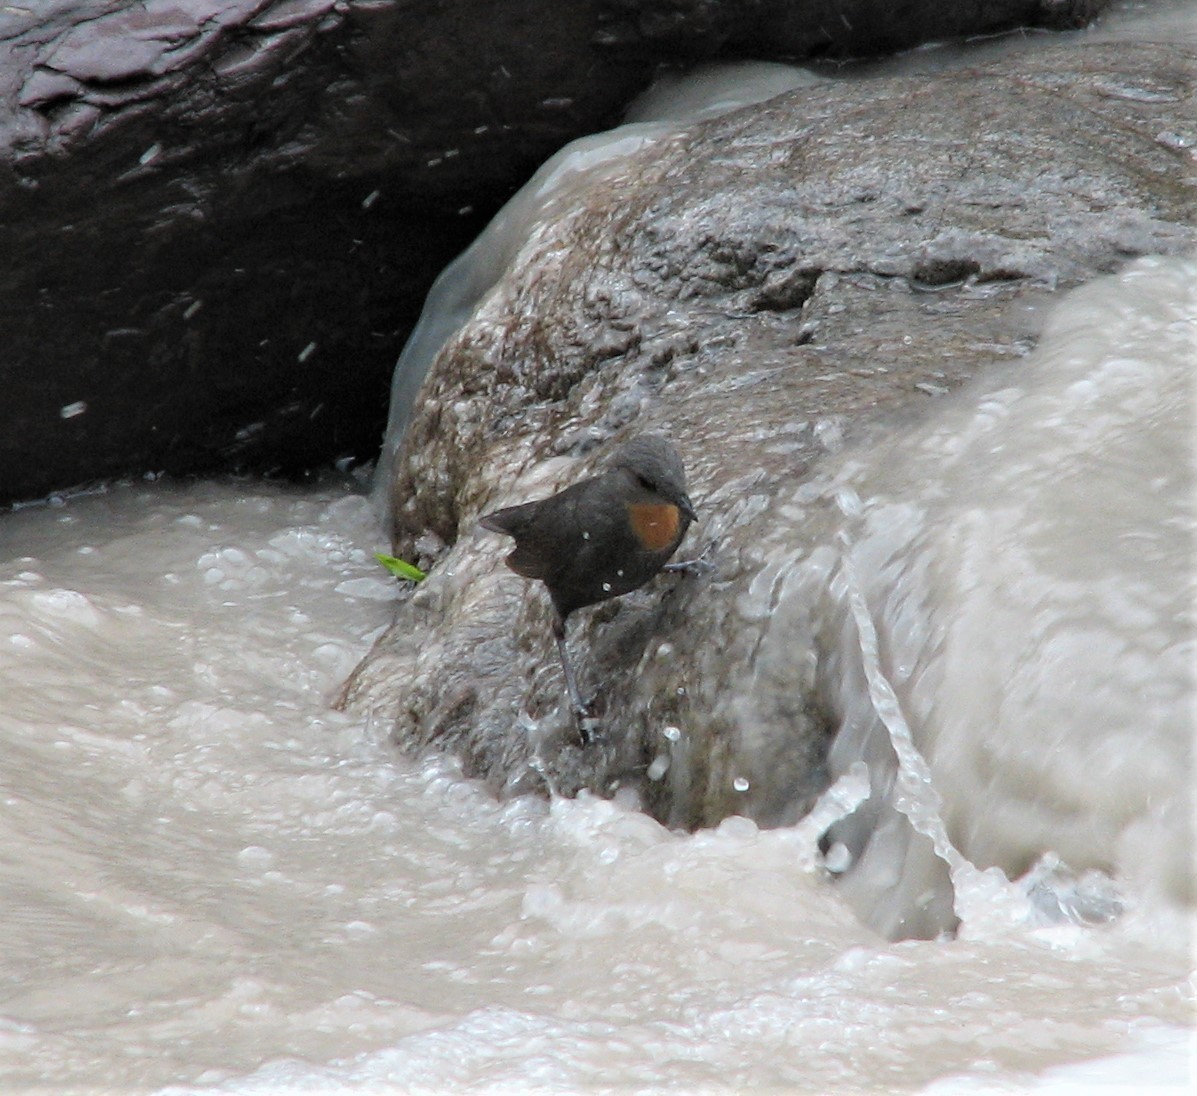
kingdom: Animalia
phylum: Chordata
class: Aves
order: Passeriformes
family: Cinclidae
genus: Cinclus
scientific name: Cinclus schulzii
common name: Rufous-throated dipper
